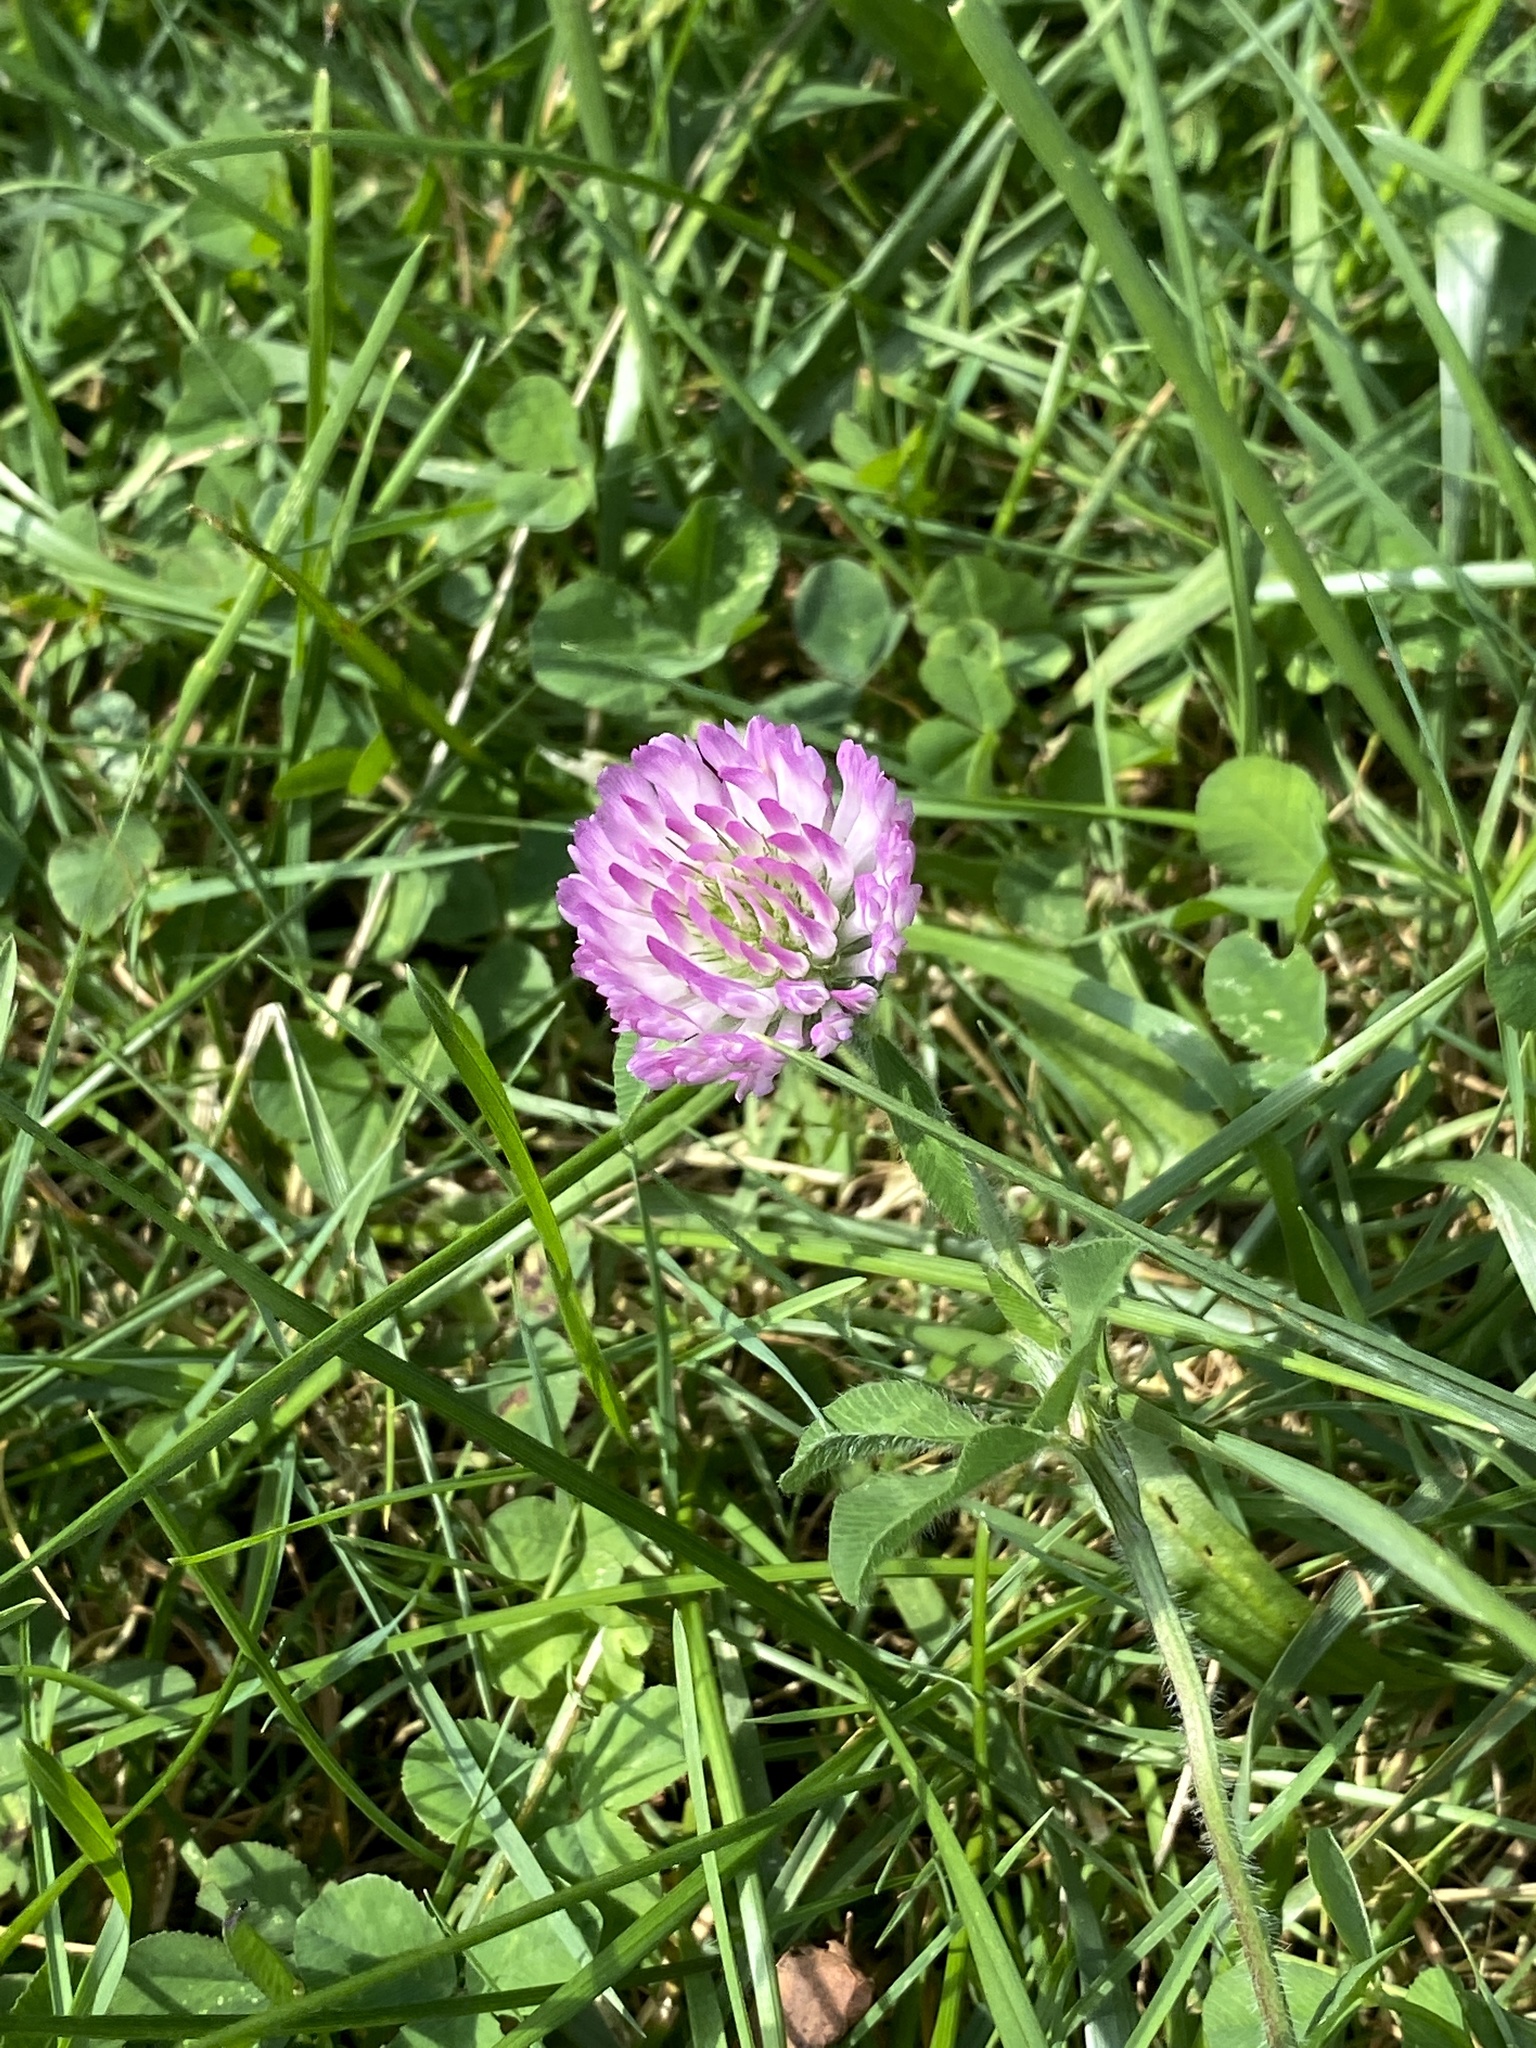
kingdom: Plantae
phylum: Tracheophyta
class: Magnoliopsida
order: Fabales
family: Fabaceae
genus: Trifolium
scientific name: Trifolium pratense
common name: Red clover
